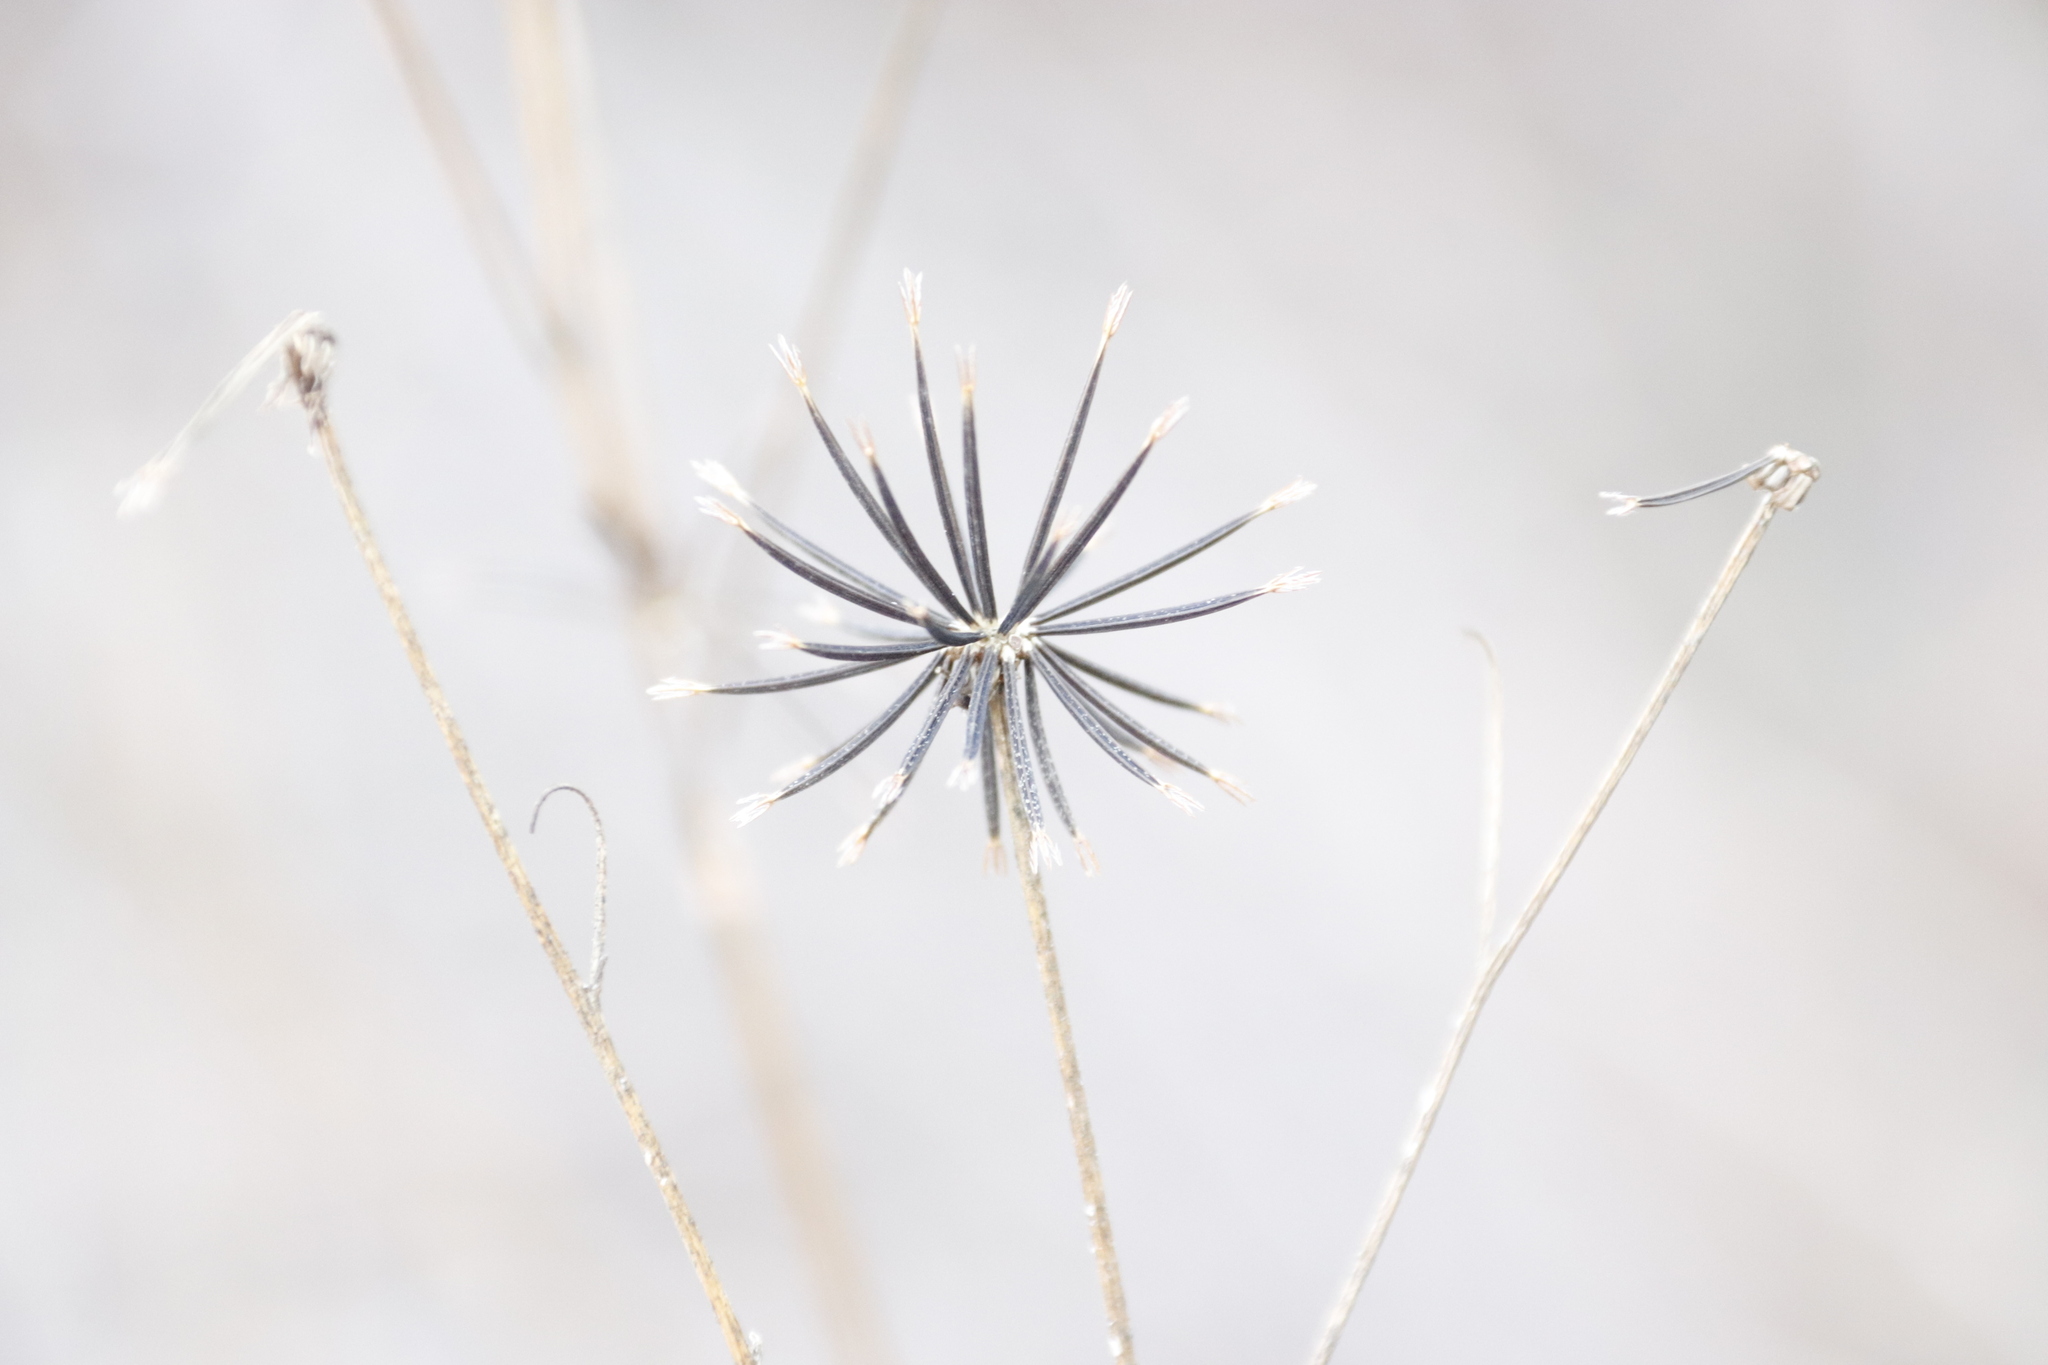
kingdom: Plantae
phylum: Tracheophyta
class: Magnoliopsida
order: Asterales
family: Asteraceae
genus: Bidens
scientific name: Bidens pilosa
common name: Black-jack
